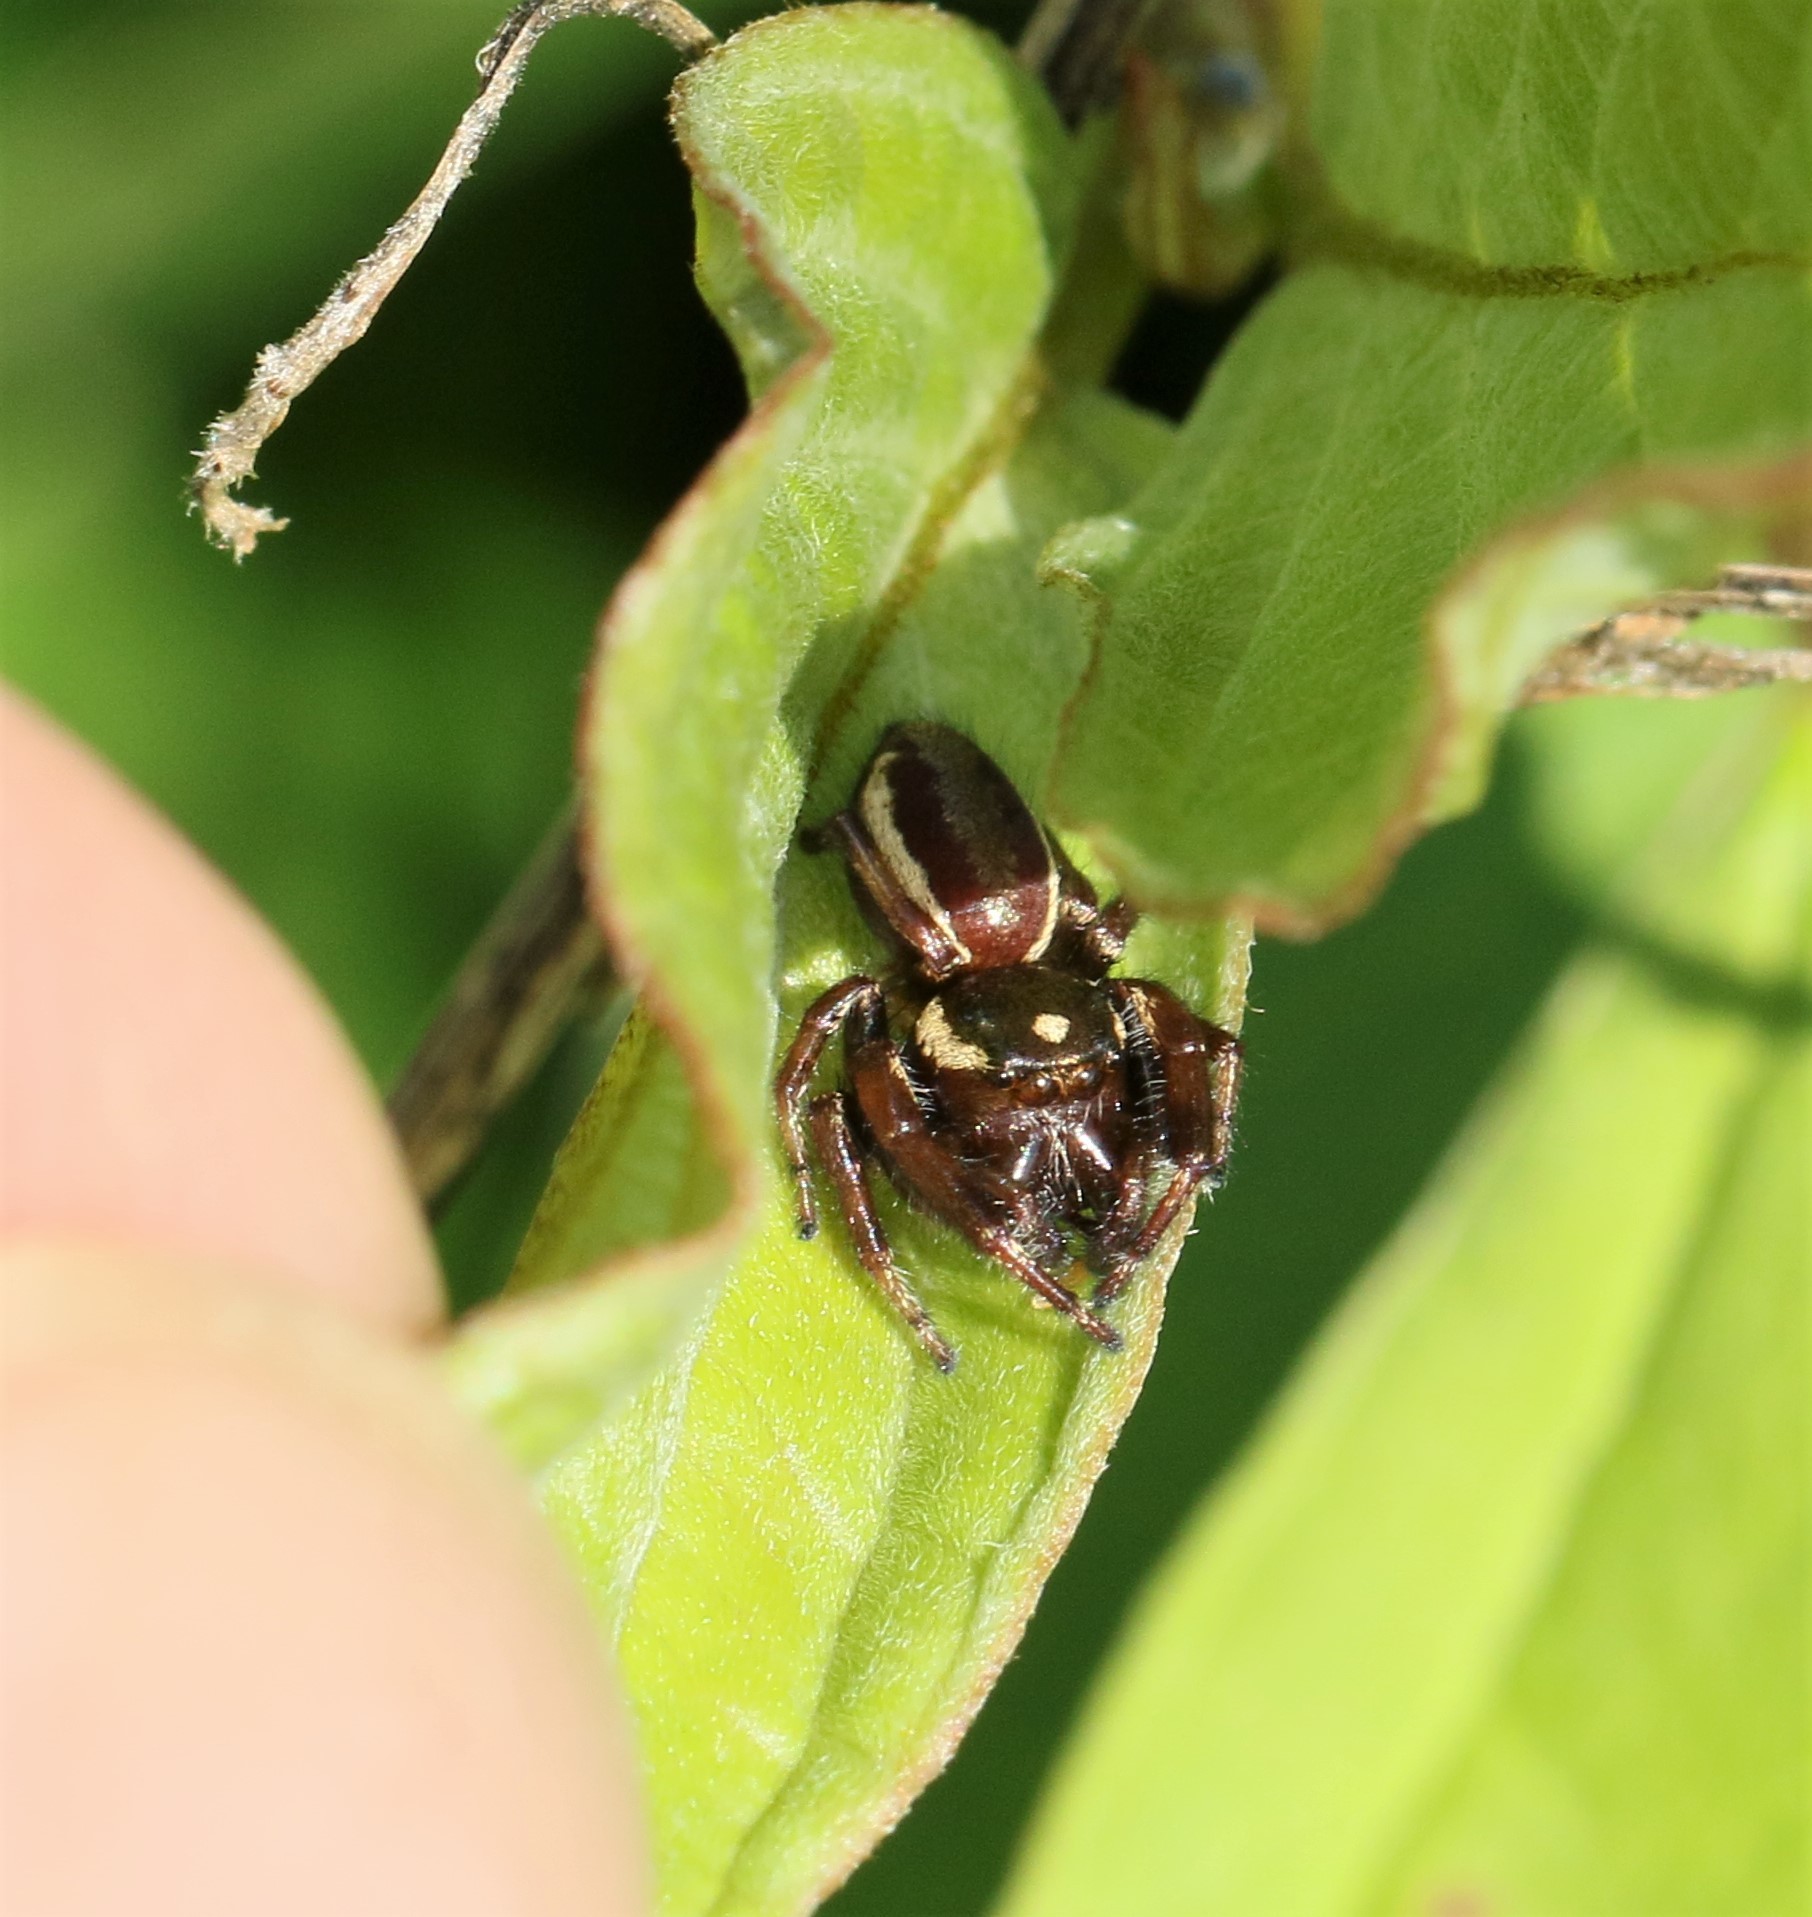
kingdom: Animalia
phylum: Arthropoda
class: Arachnida
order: Araneae
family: Salticidae
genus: Eris
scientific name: Eris militaris
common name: Bronze jumper
